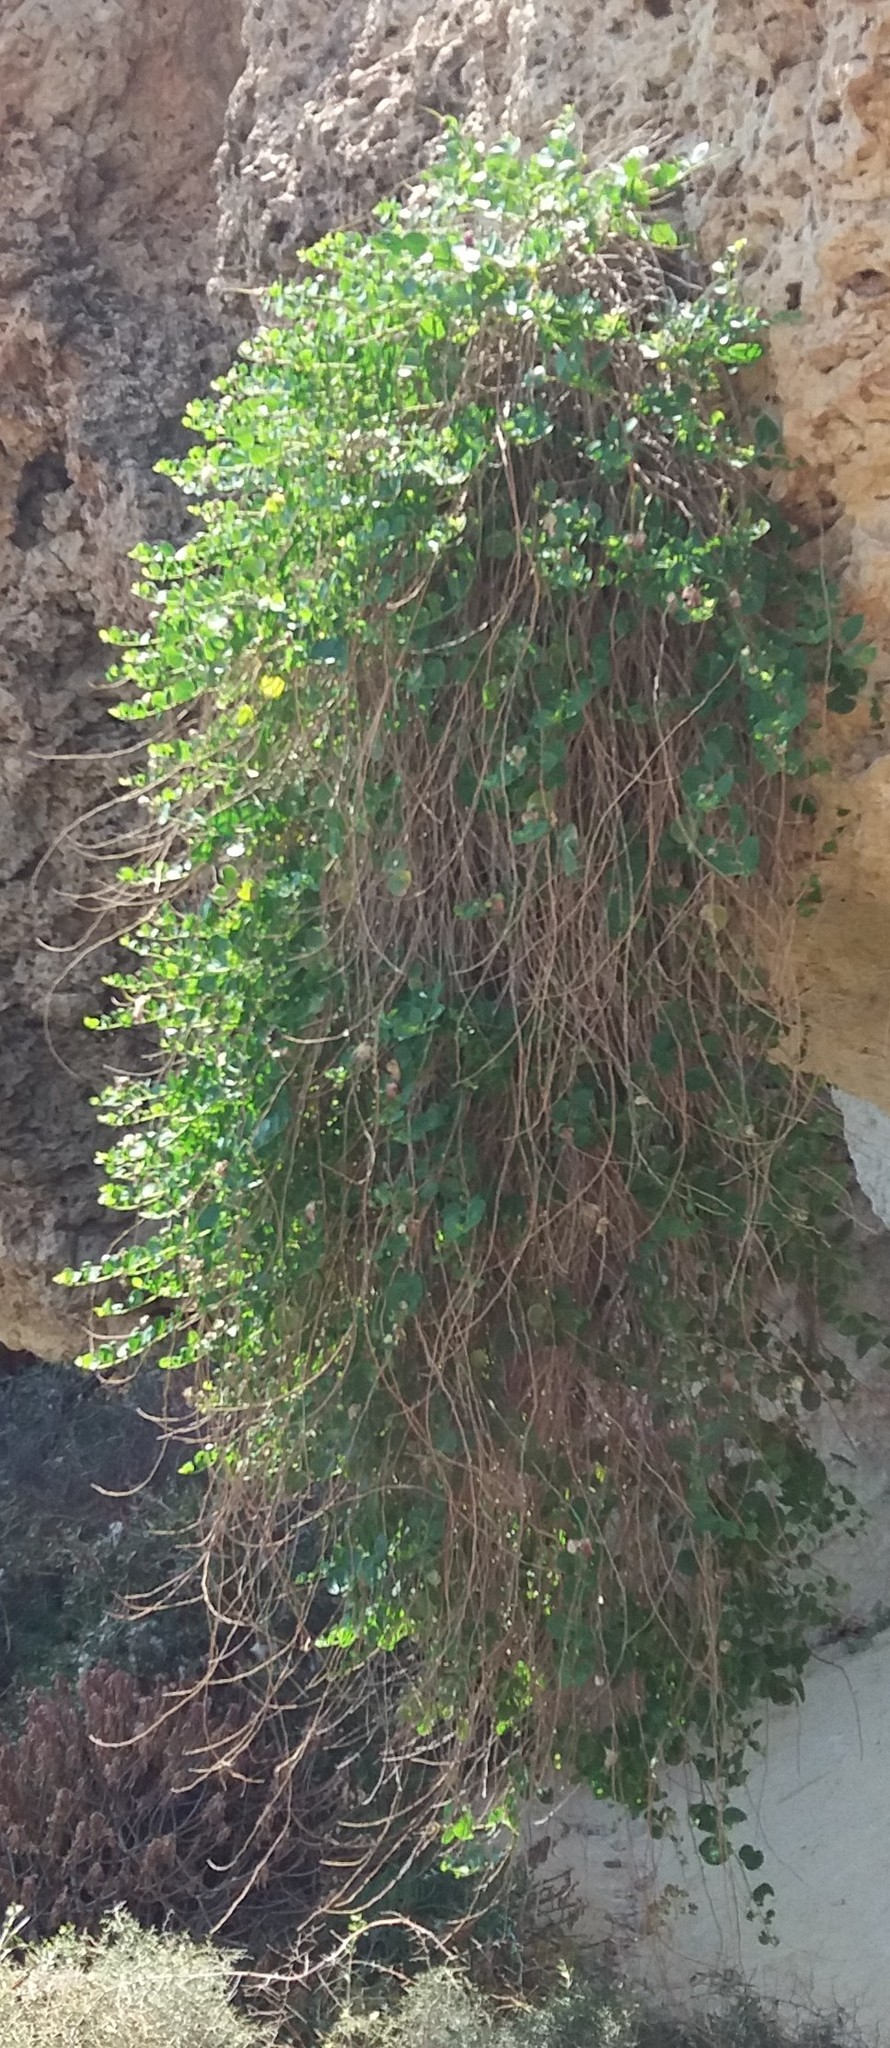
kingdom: Plantae
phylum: Tracheophyta
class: Magnoliopsida
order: Brassicales
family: Capparaceae
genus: Capparis
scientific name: Capparis orientalis
